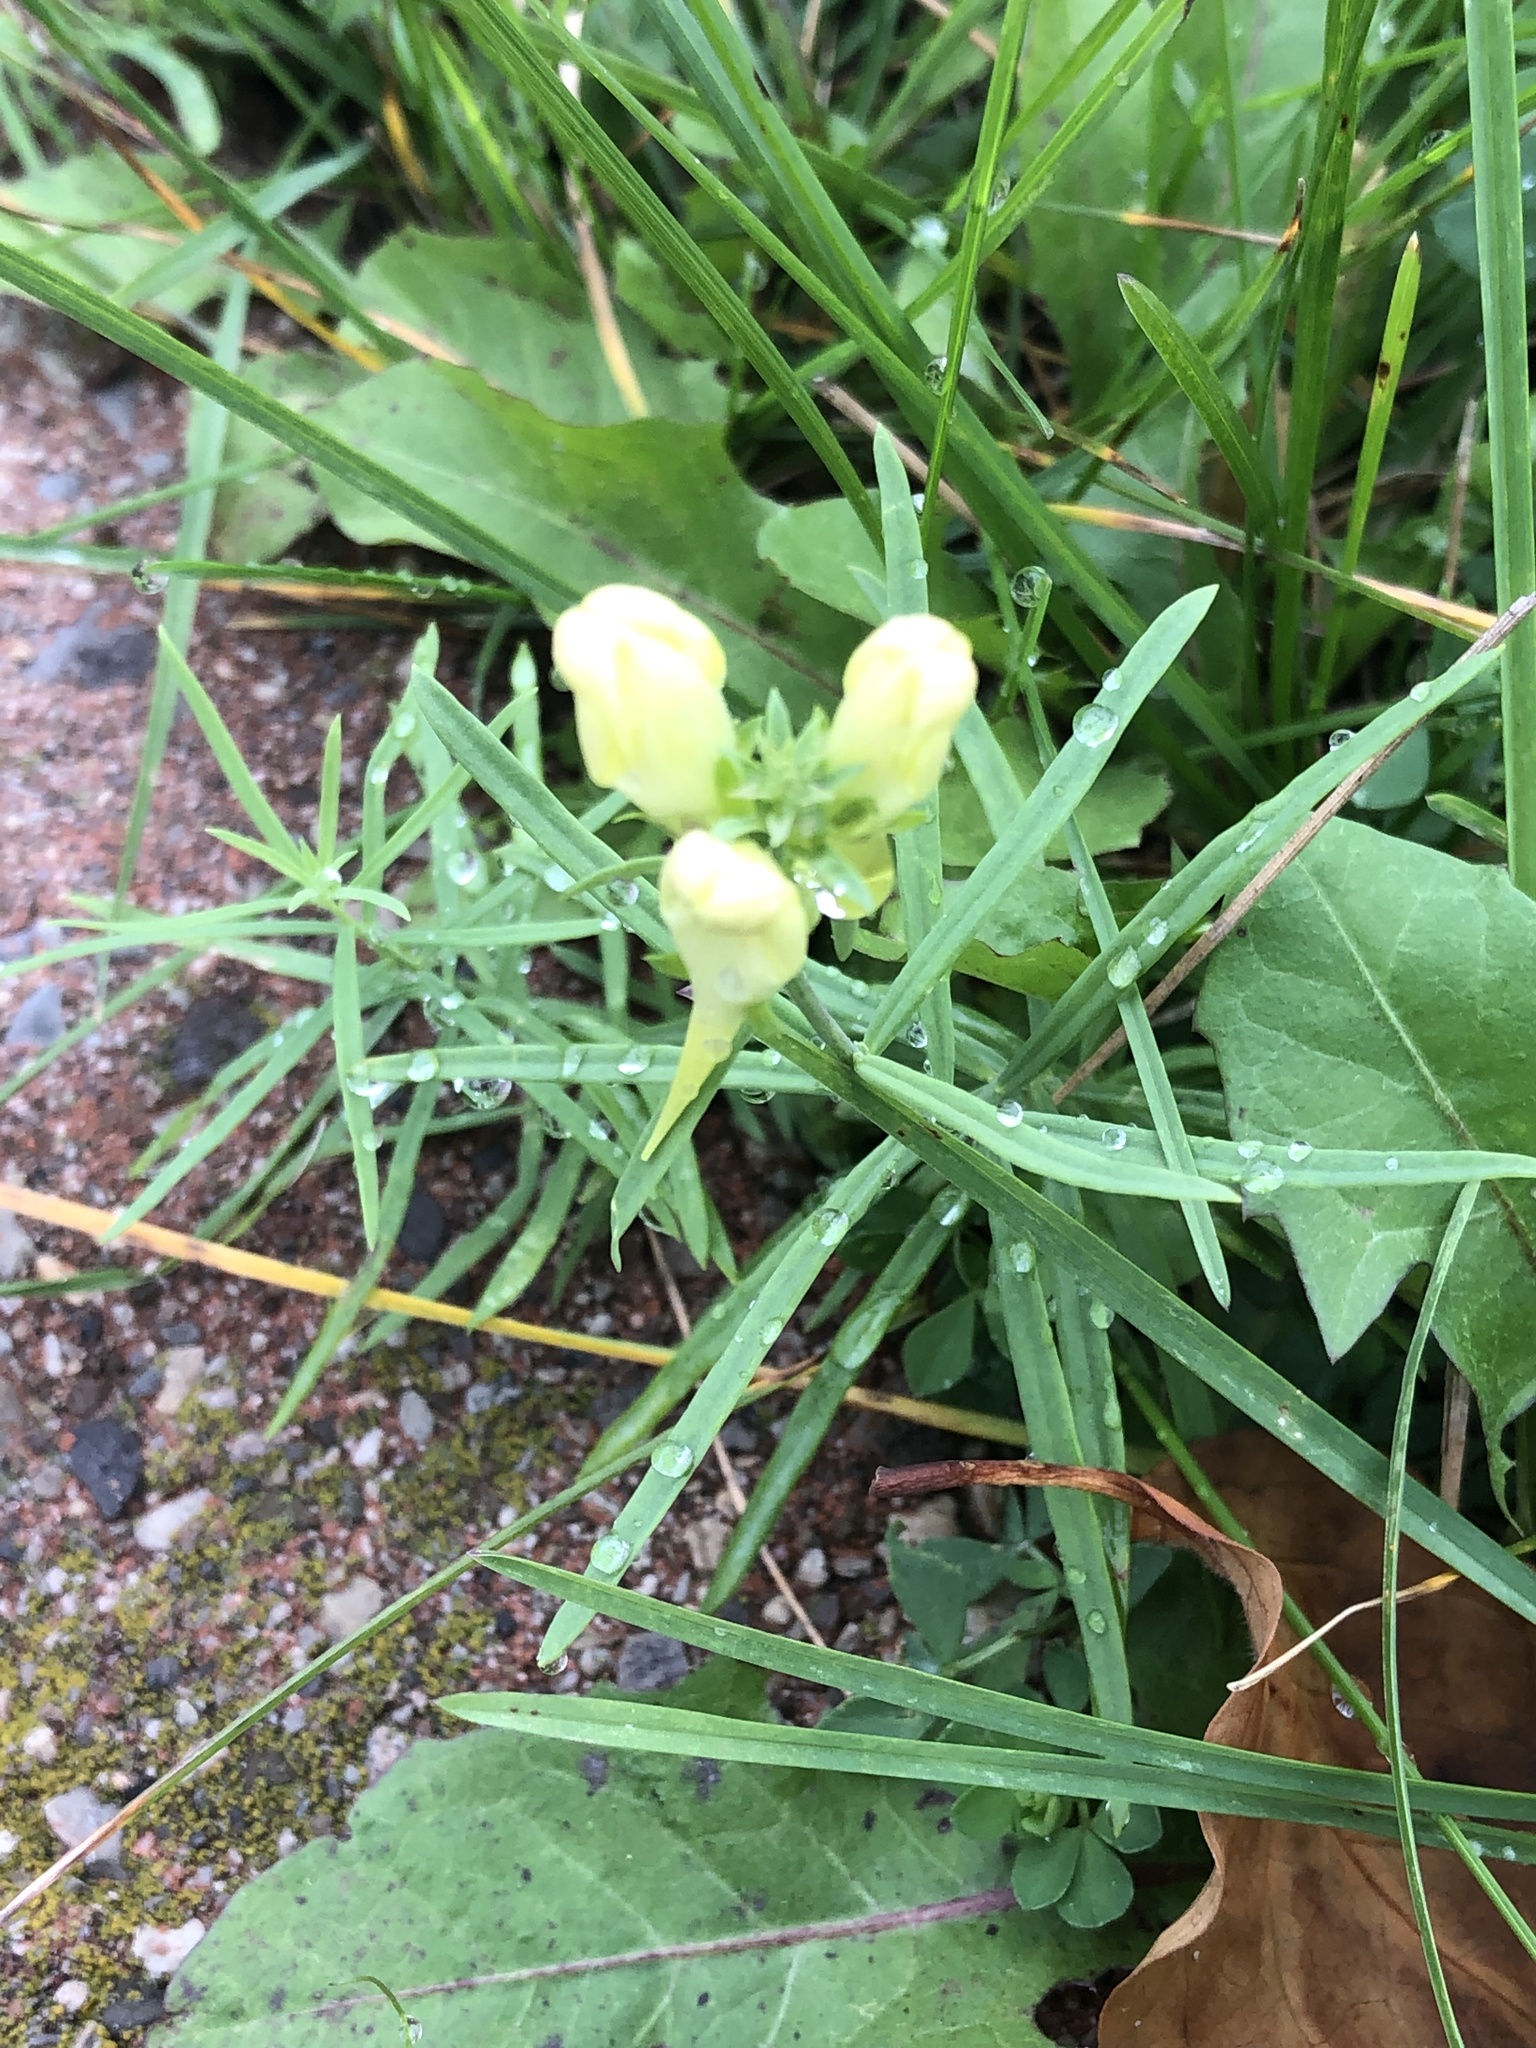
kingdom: Plantae
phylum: Tracheophyta
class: Magnoliopsida
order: Lamiales
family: Plantaginaceae
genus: Linaria
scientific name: Linaria vulgaris
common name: Butter and eggs
